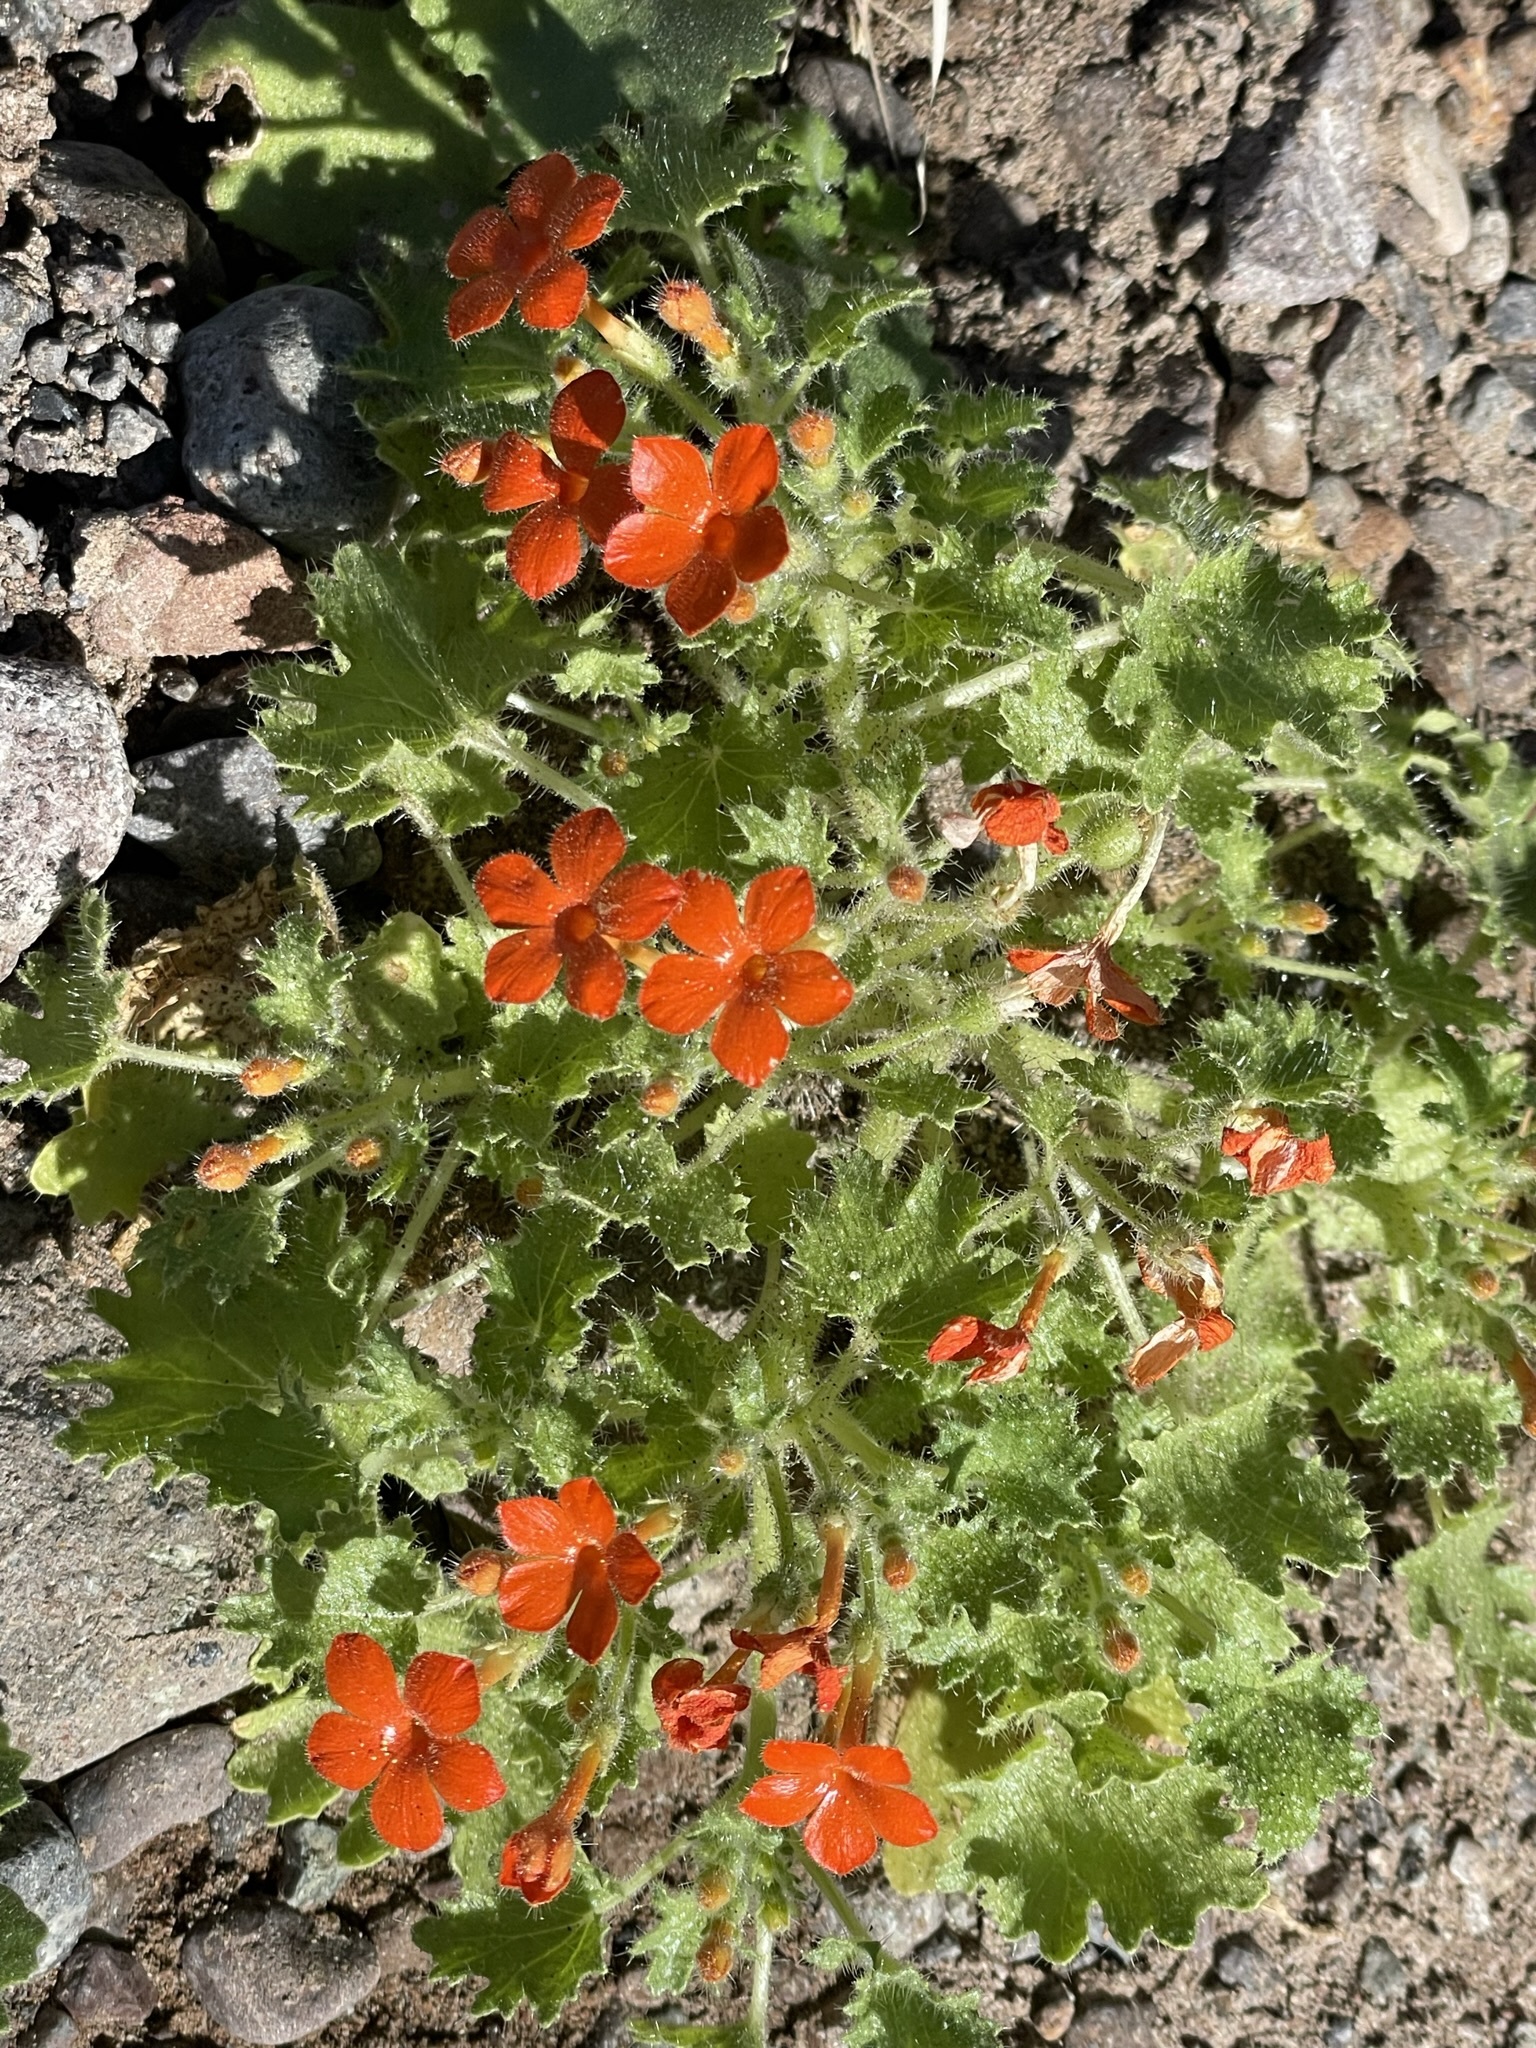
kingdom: Plantae
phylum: Tracheophyta
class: Magnoliopsida
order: Cornales
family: Loasaceae
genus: Eucnide
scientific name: Eucnide aurea
